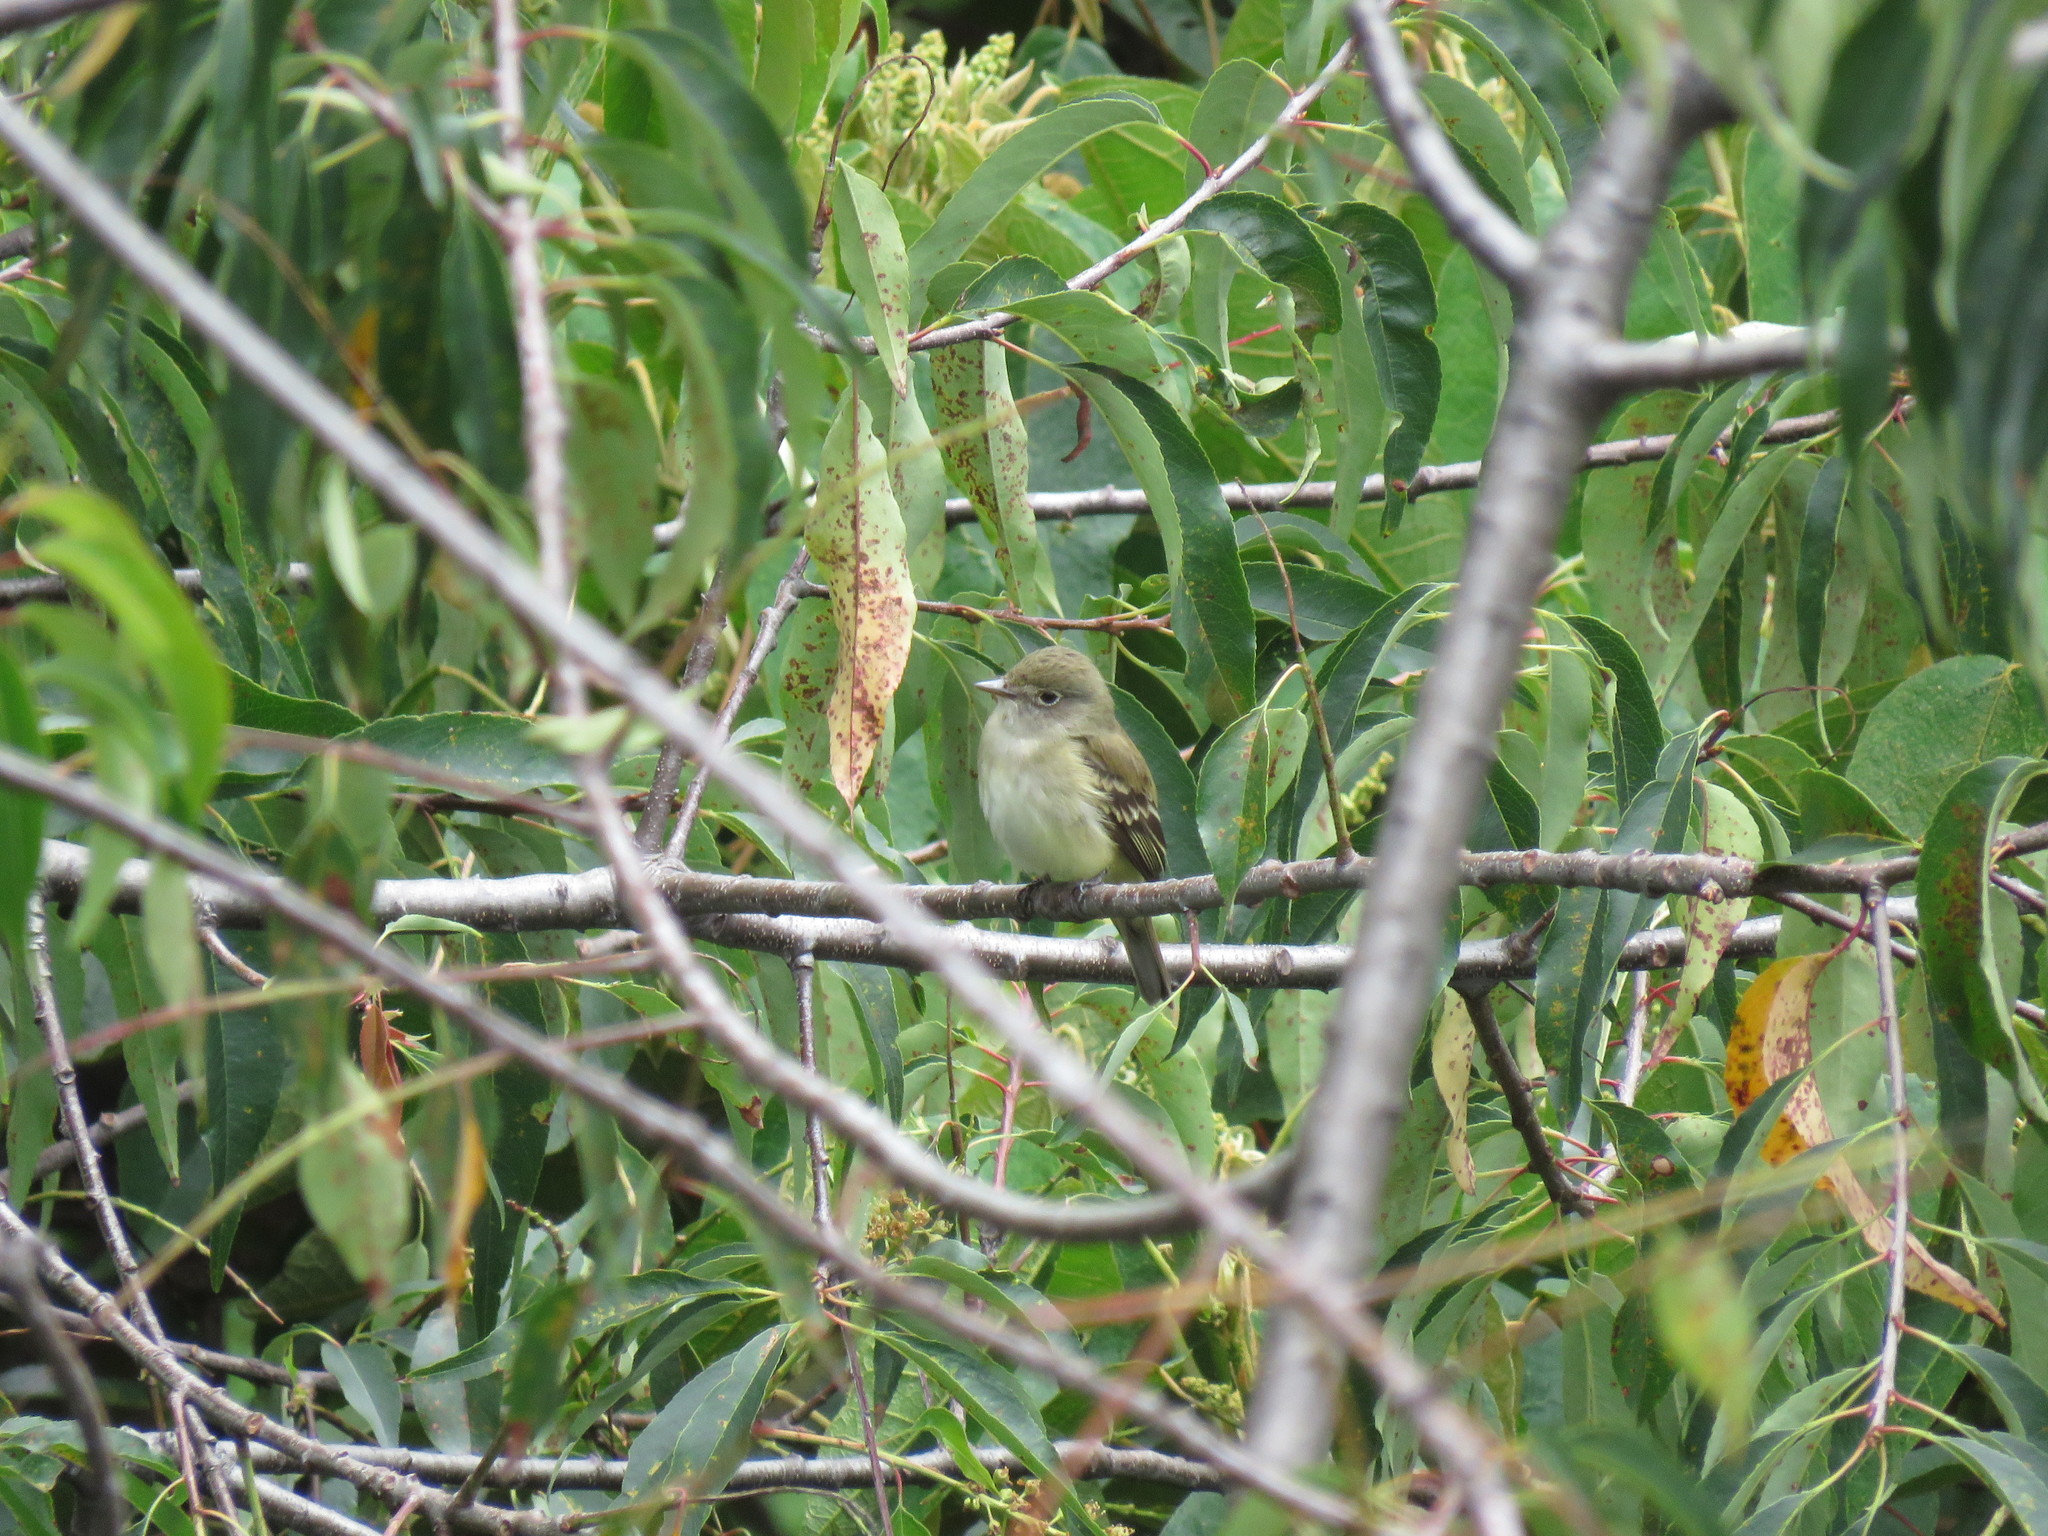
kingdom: Animalia
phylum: Chordata
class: Aves
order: Passeriformes
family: Tyrannidae
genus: Elaenia
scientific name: Elaenia frantzii
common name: Mountain elaenia
